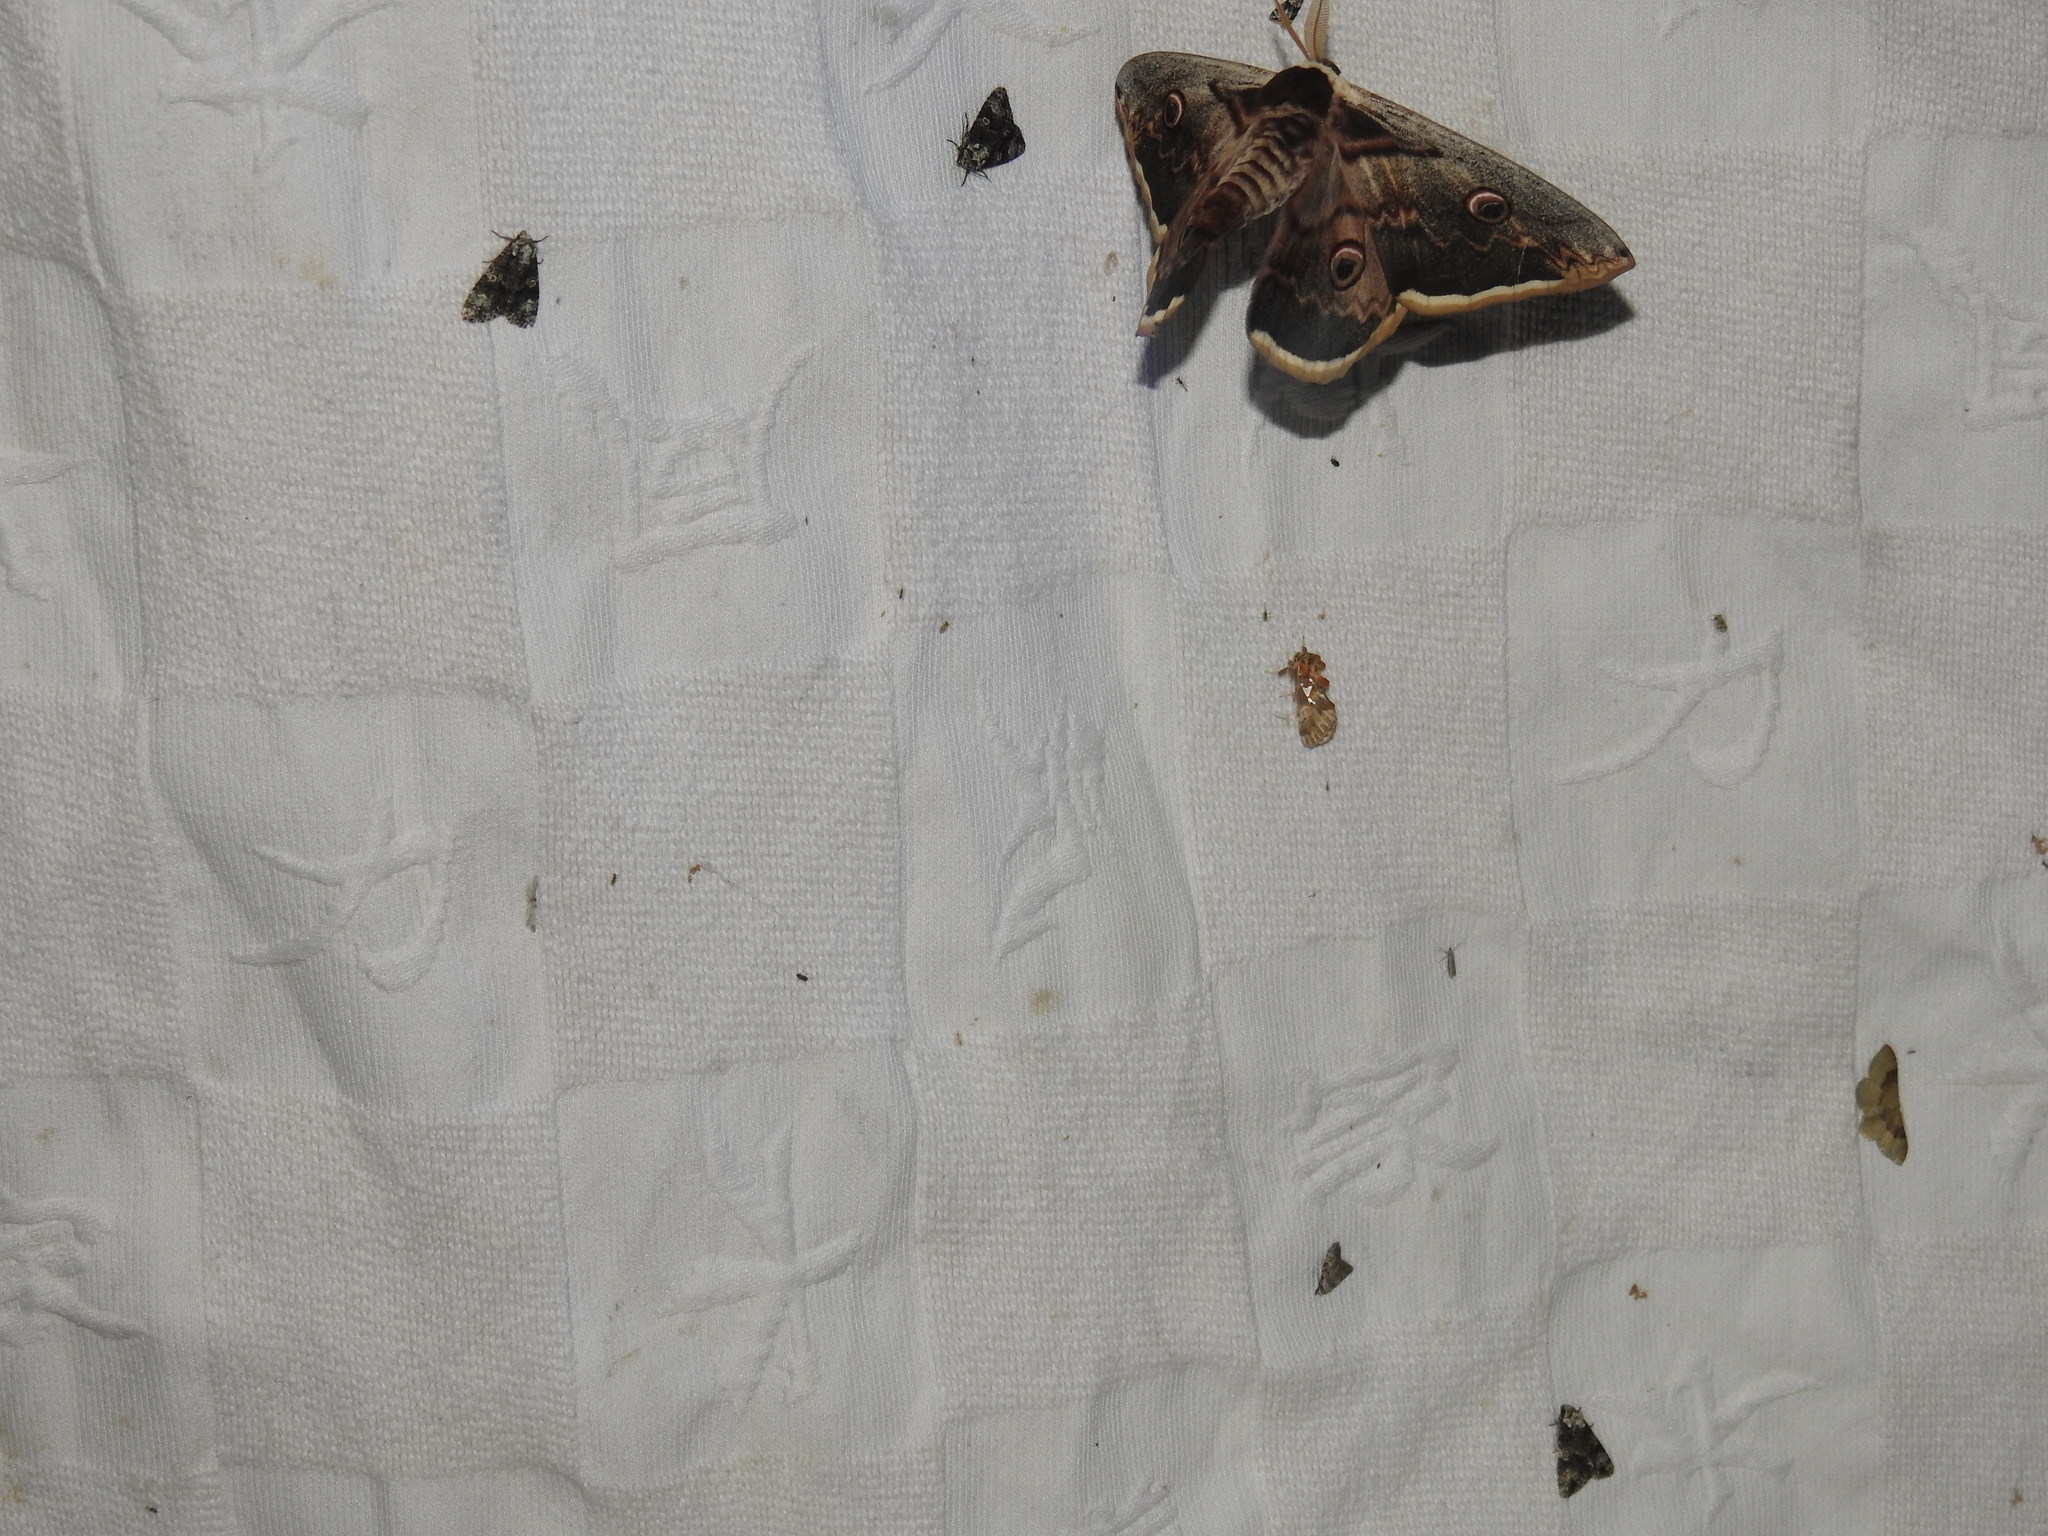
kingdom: Animalia
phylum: Arthropoda
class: Insecta
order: Lepidoptera
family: Saturniidae
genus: Saturnia
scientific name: Saturnia pyri
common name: Great peacock moth
